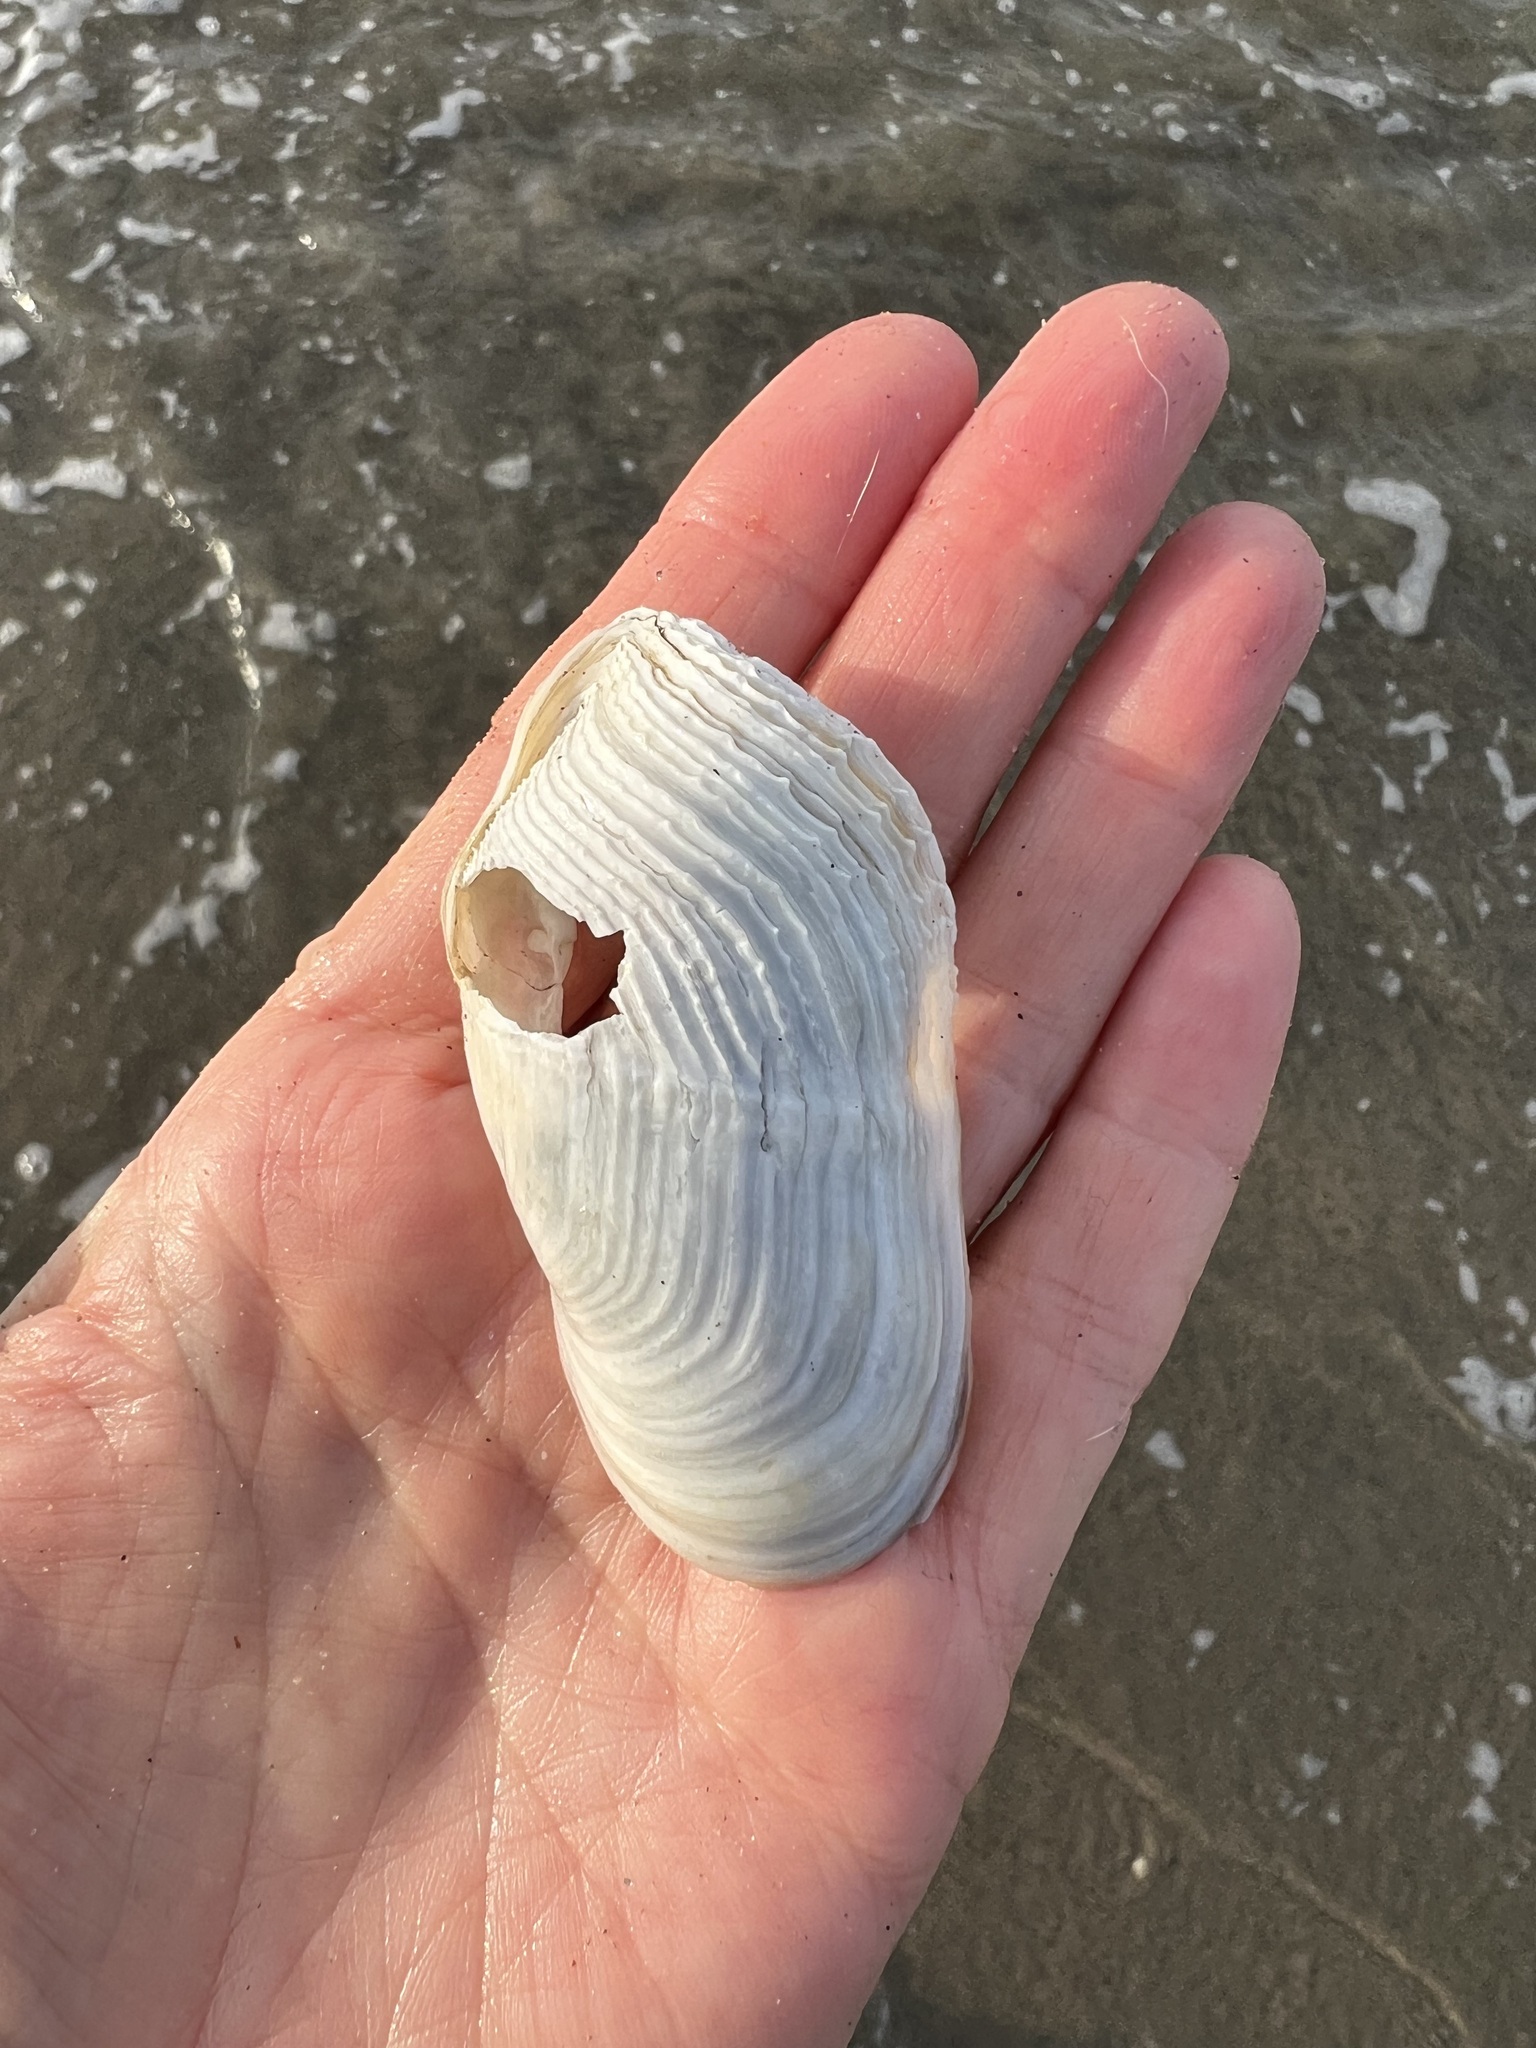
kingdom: Animalia
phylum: Mollusca
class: Bivalvia
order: Myida
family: Pholadidae
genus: Zirfaea
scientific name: Zirfaea pilsbryi
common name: Rough piddock
